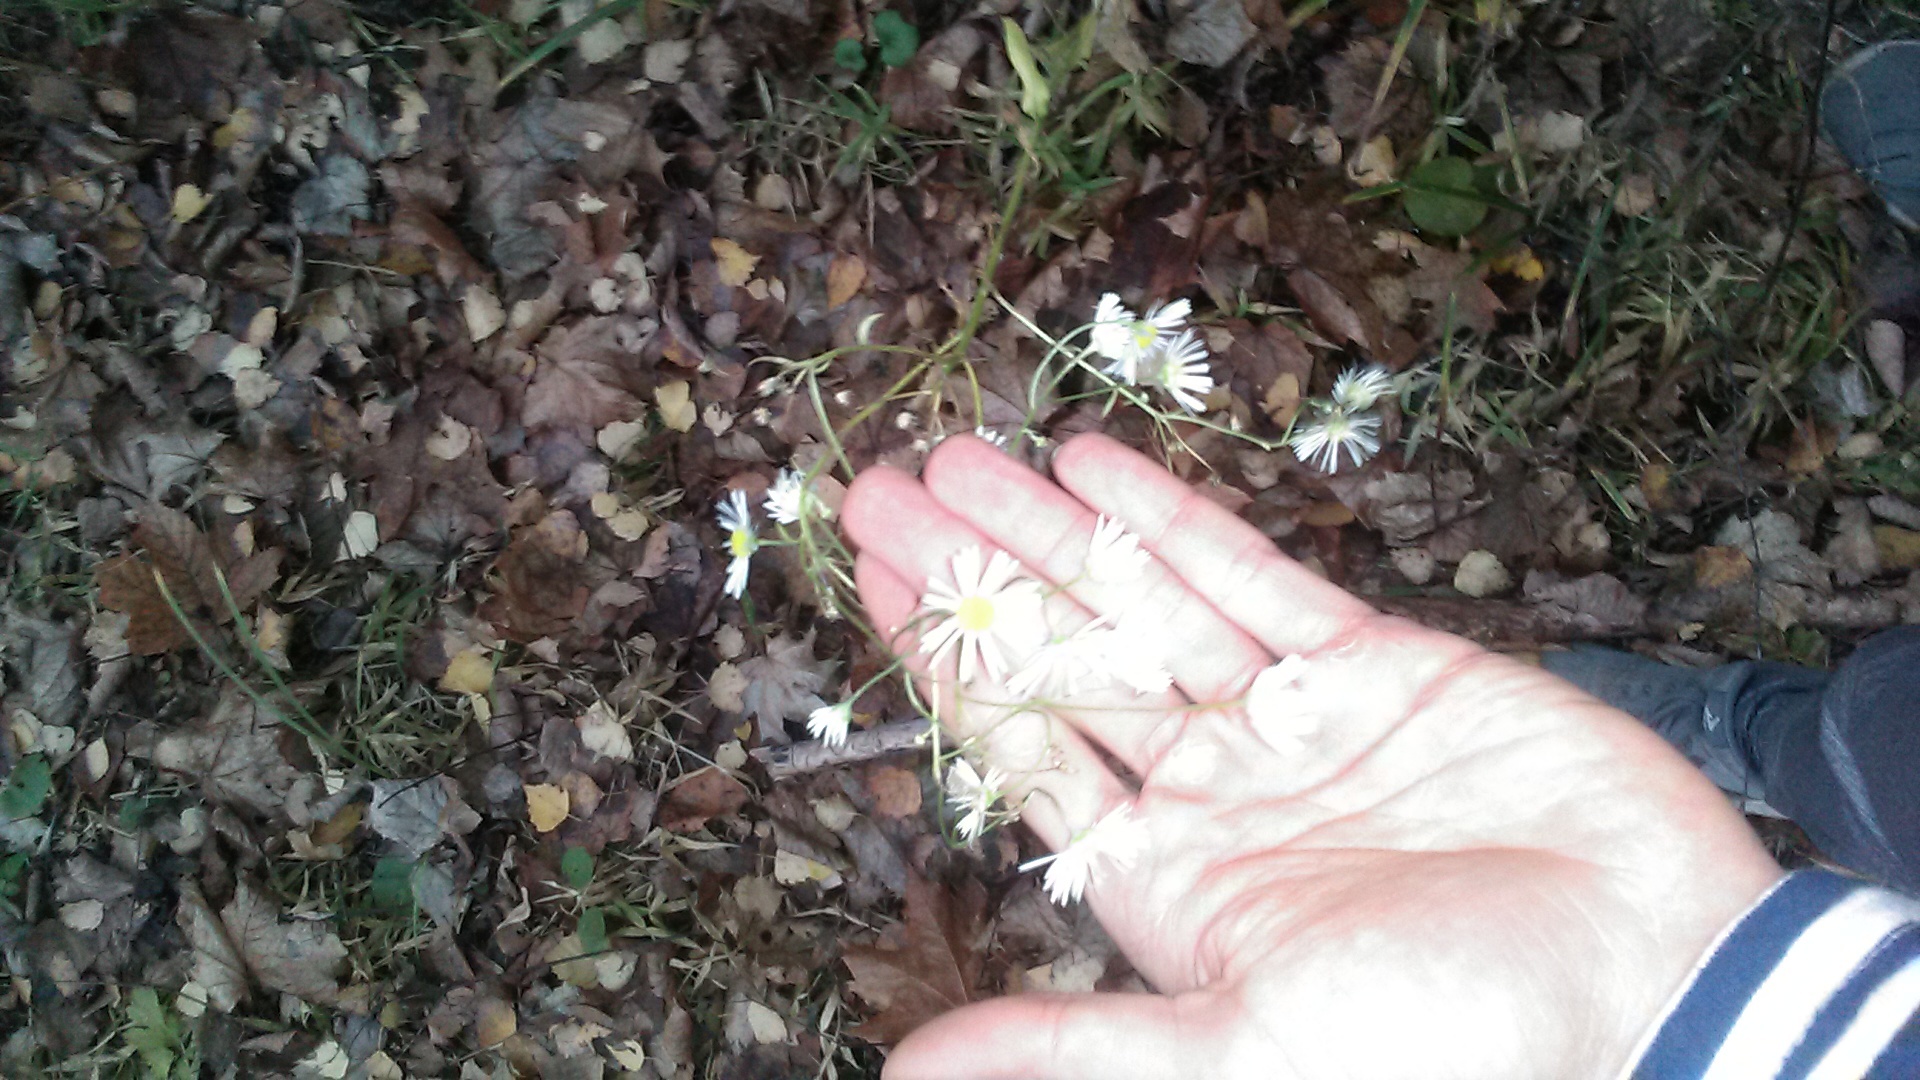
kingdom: Plantae
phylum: Tracheophyta
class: Magnoliopsida
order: Asterales
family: Asteraceae
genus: Erigeron
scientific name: Erigeron annuus
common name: Tall fleabane
